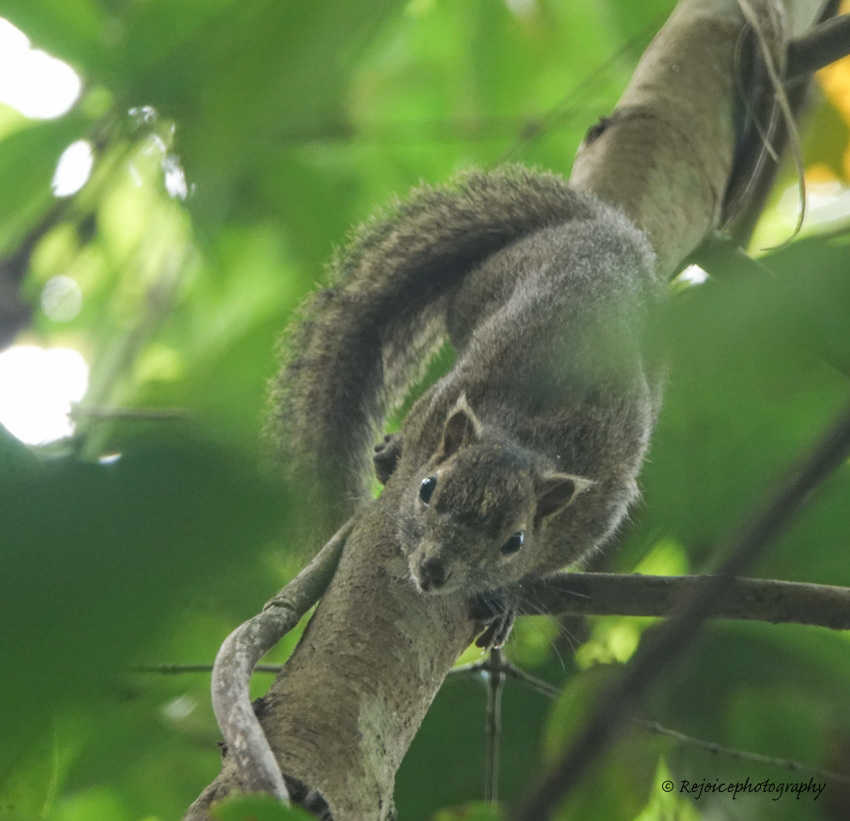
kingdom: Animalia
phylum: Chordata
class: Mammalia
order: Rodentia
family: Sciuridae
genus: Callosciurus
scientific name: Callosciurus pygerythrus
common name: Irrawaddy squirrel
